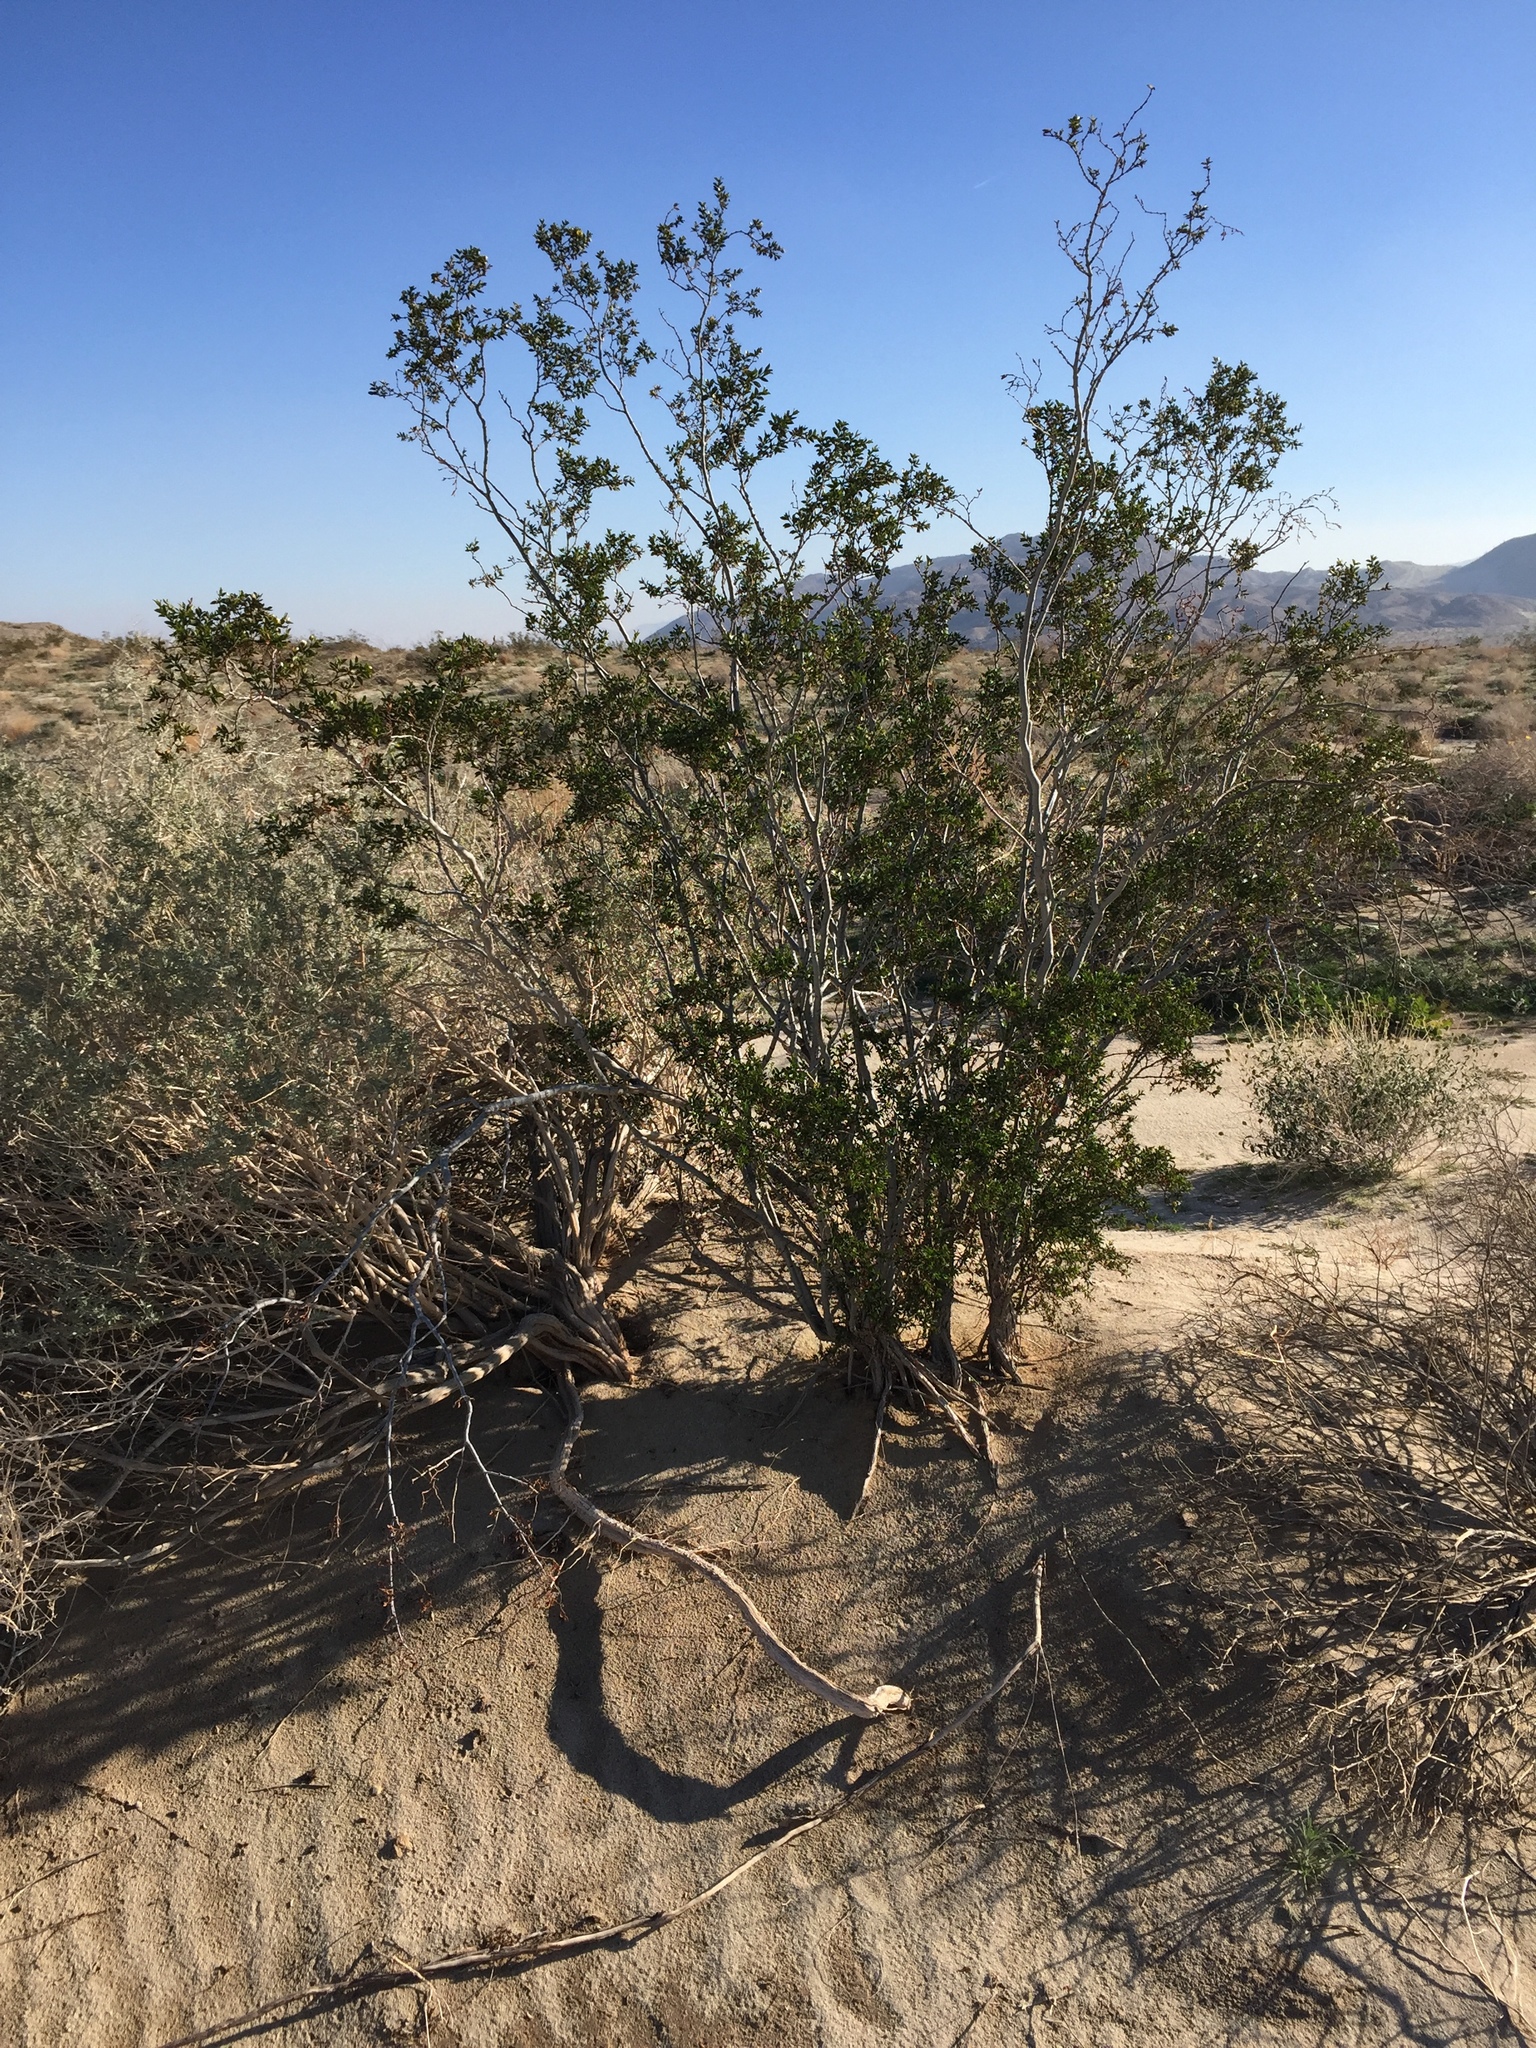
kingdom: Plantae
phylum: Tracheophyta
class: Magnoliopsida
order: Zygophyllales
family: Zygophyllaceae
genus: Larrea
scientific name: Larrea tridentata
